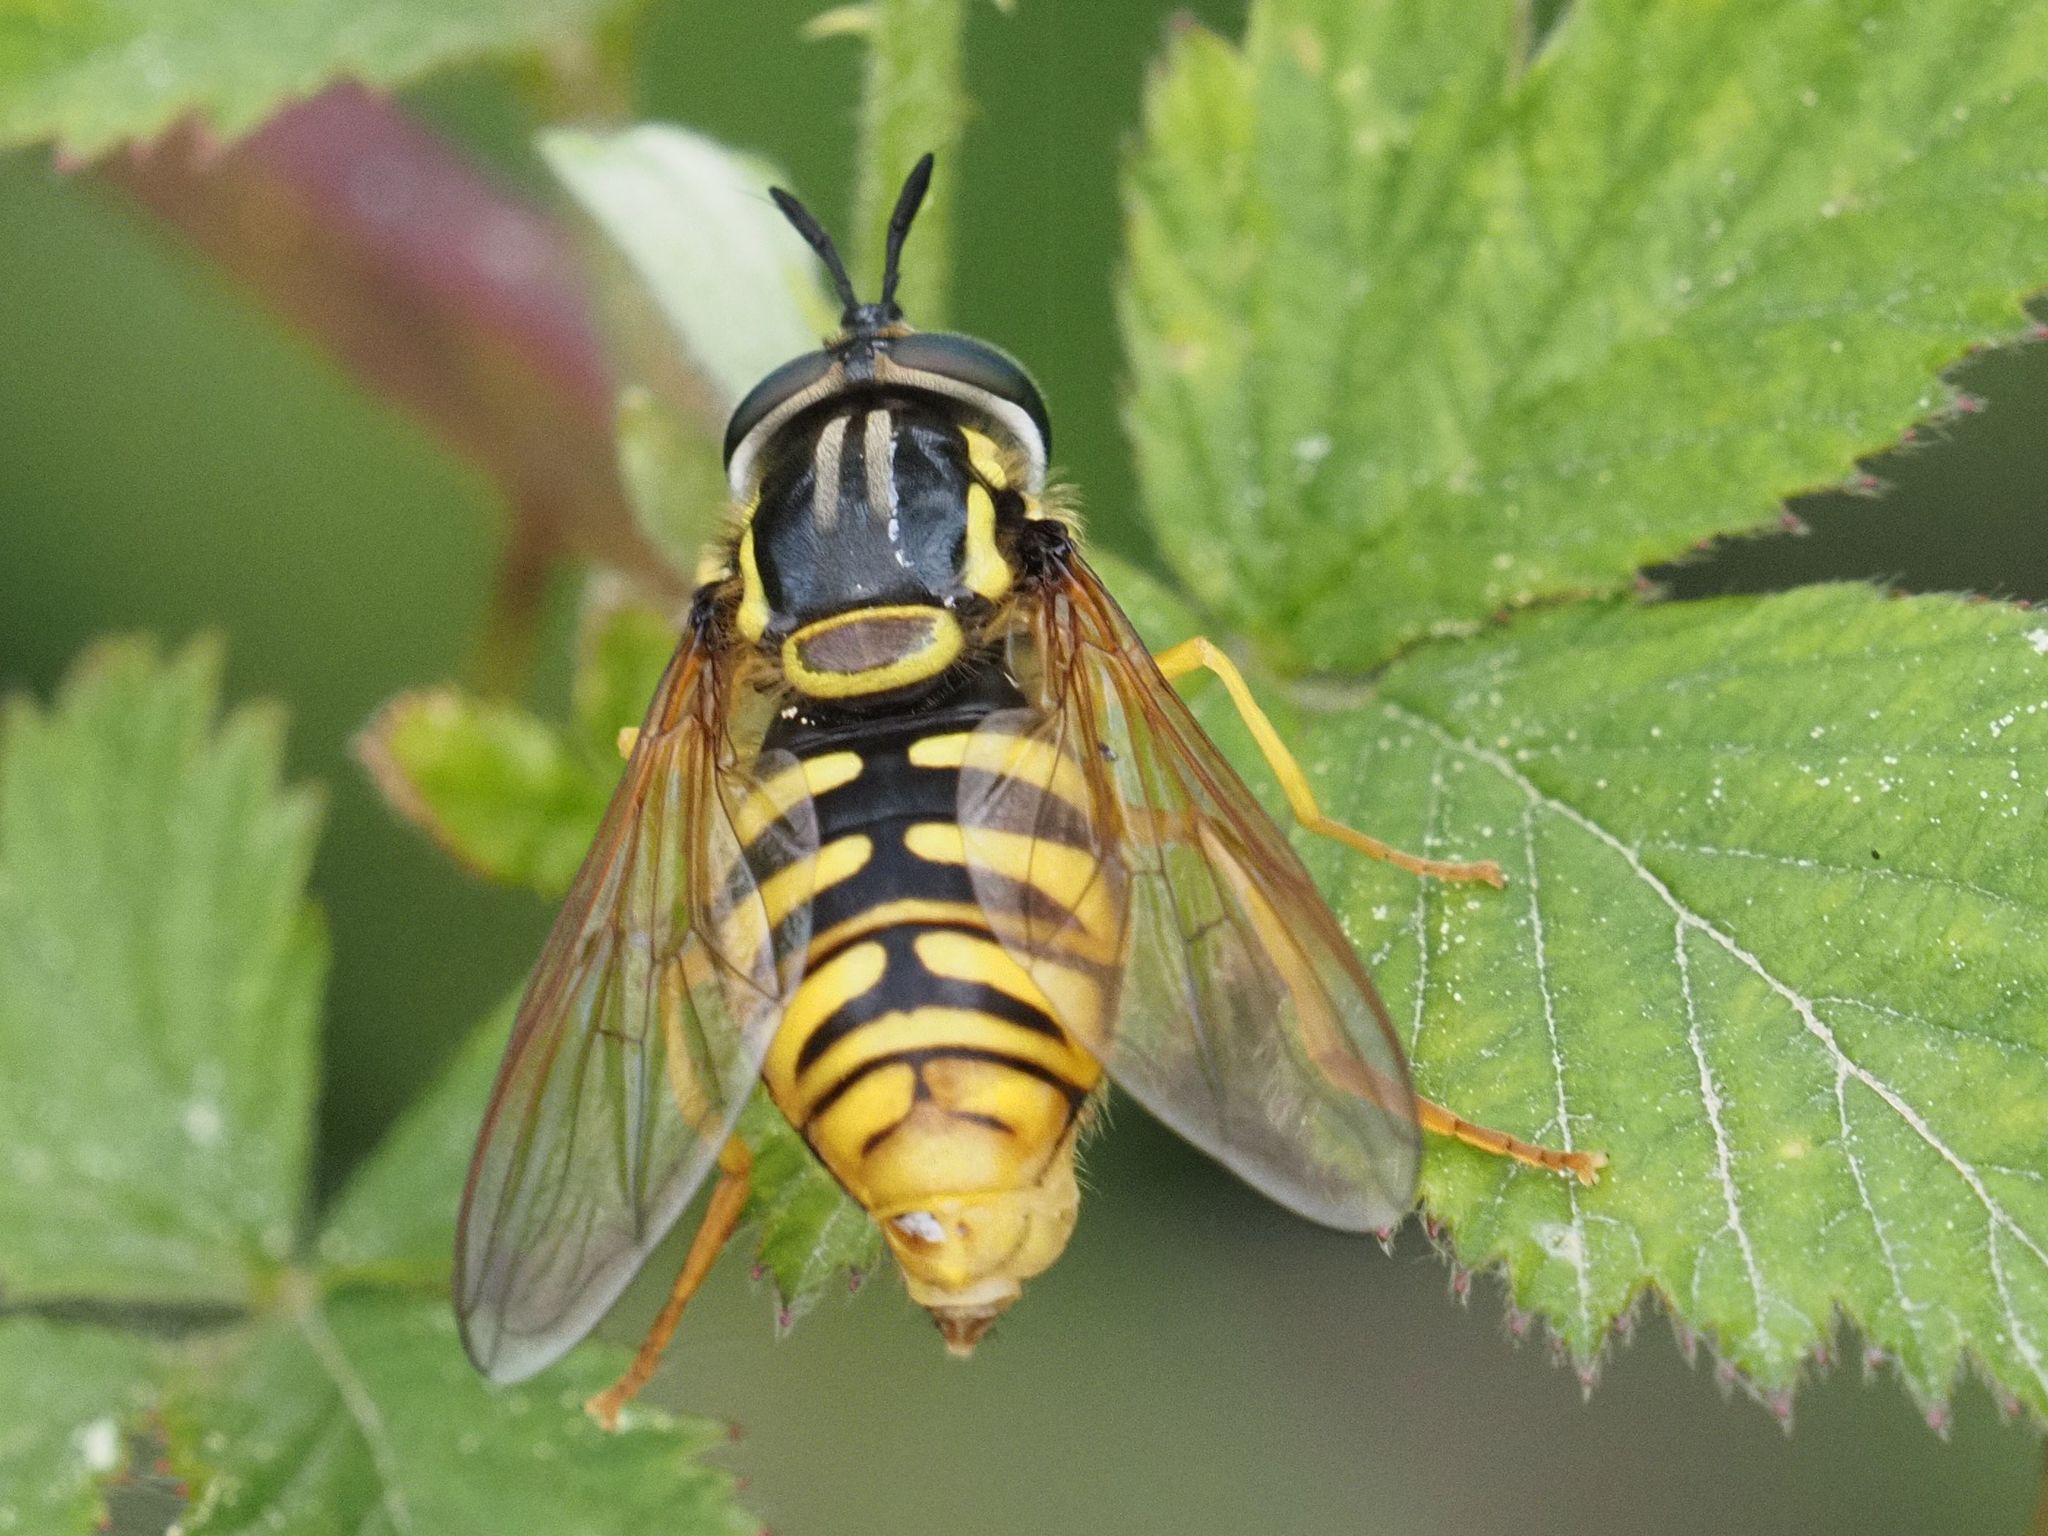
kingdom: Animalia
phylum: Arthropoda
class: Insecta
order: Diptera
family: Syrphidae
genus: Chrysotoxum
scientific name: Chrysotoxum cautum
